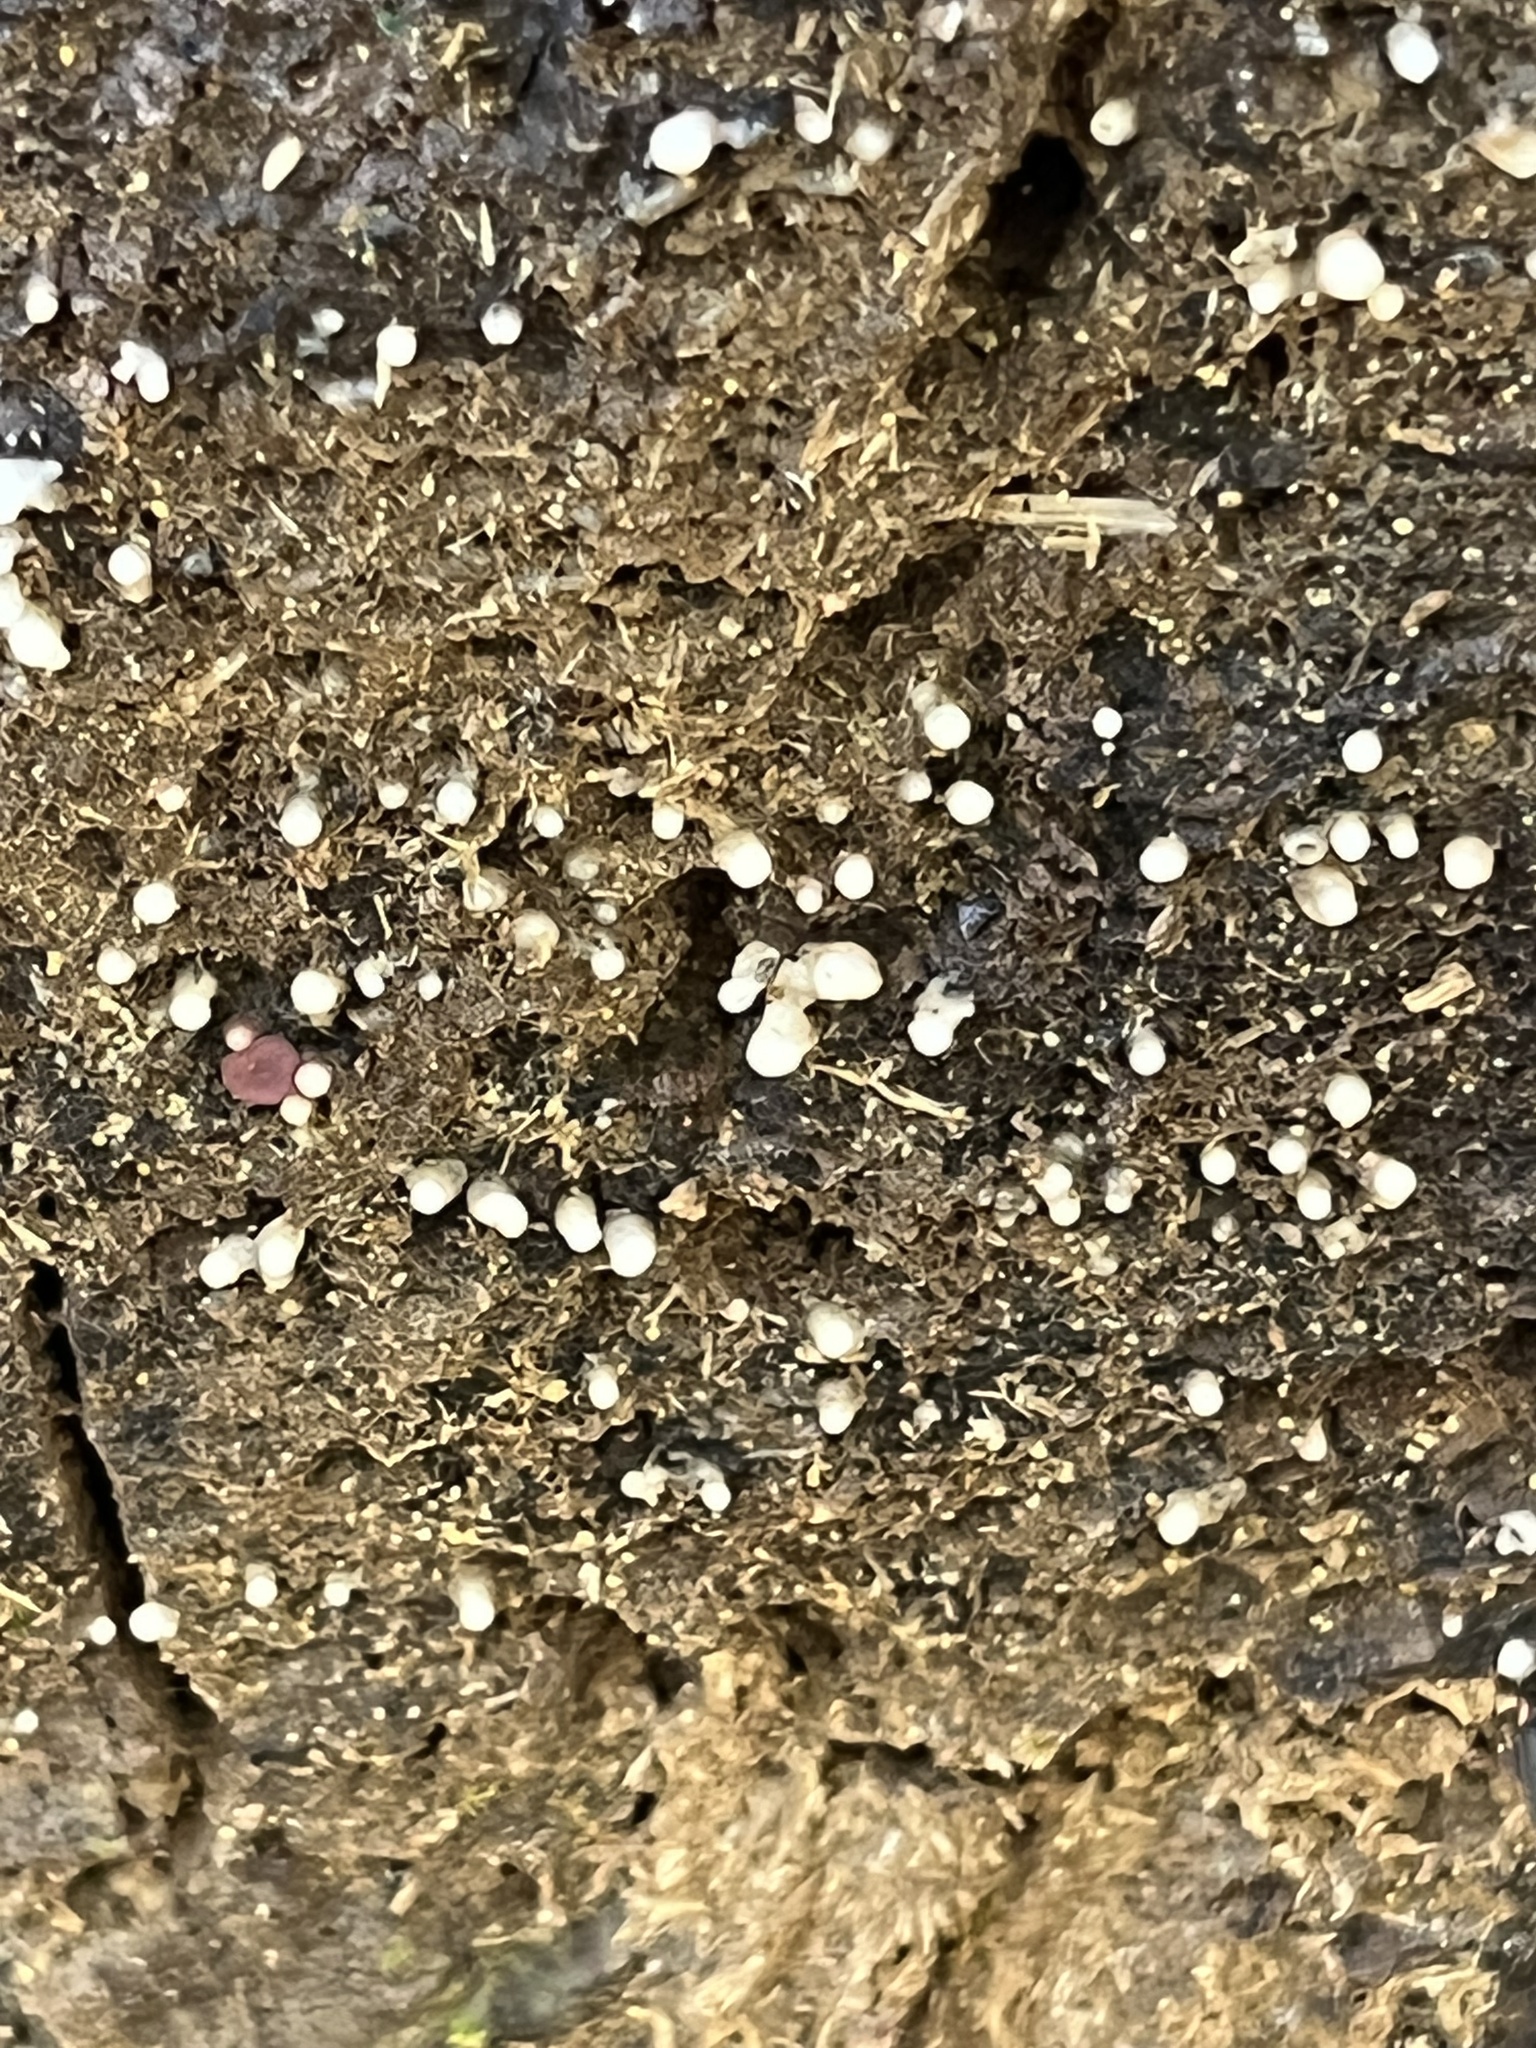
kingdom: Fungi
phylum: Basidiomycota
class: Atractiellomycetes
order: Atractiellales
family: Phleogenaceae
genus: Helicogloea
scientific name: Helicogloea compressa
